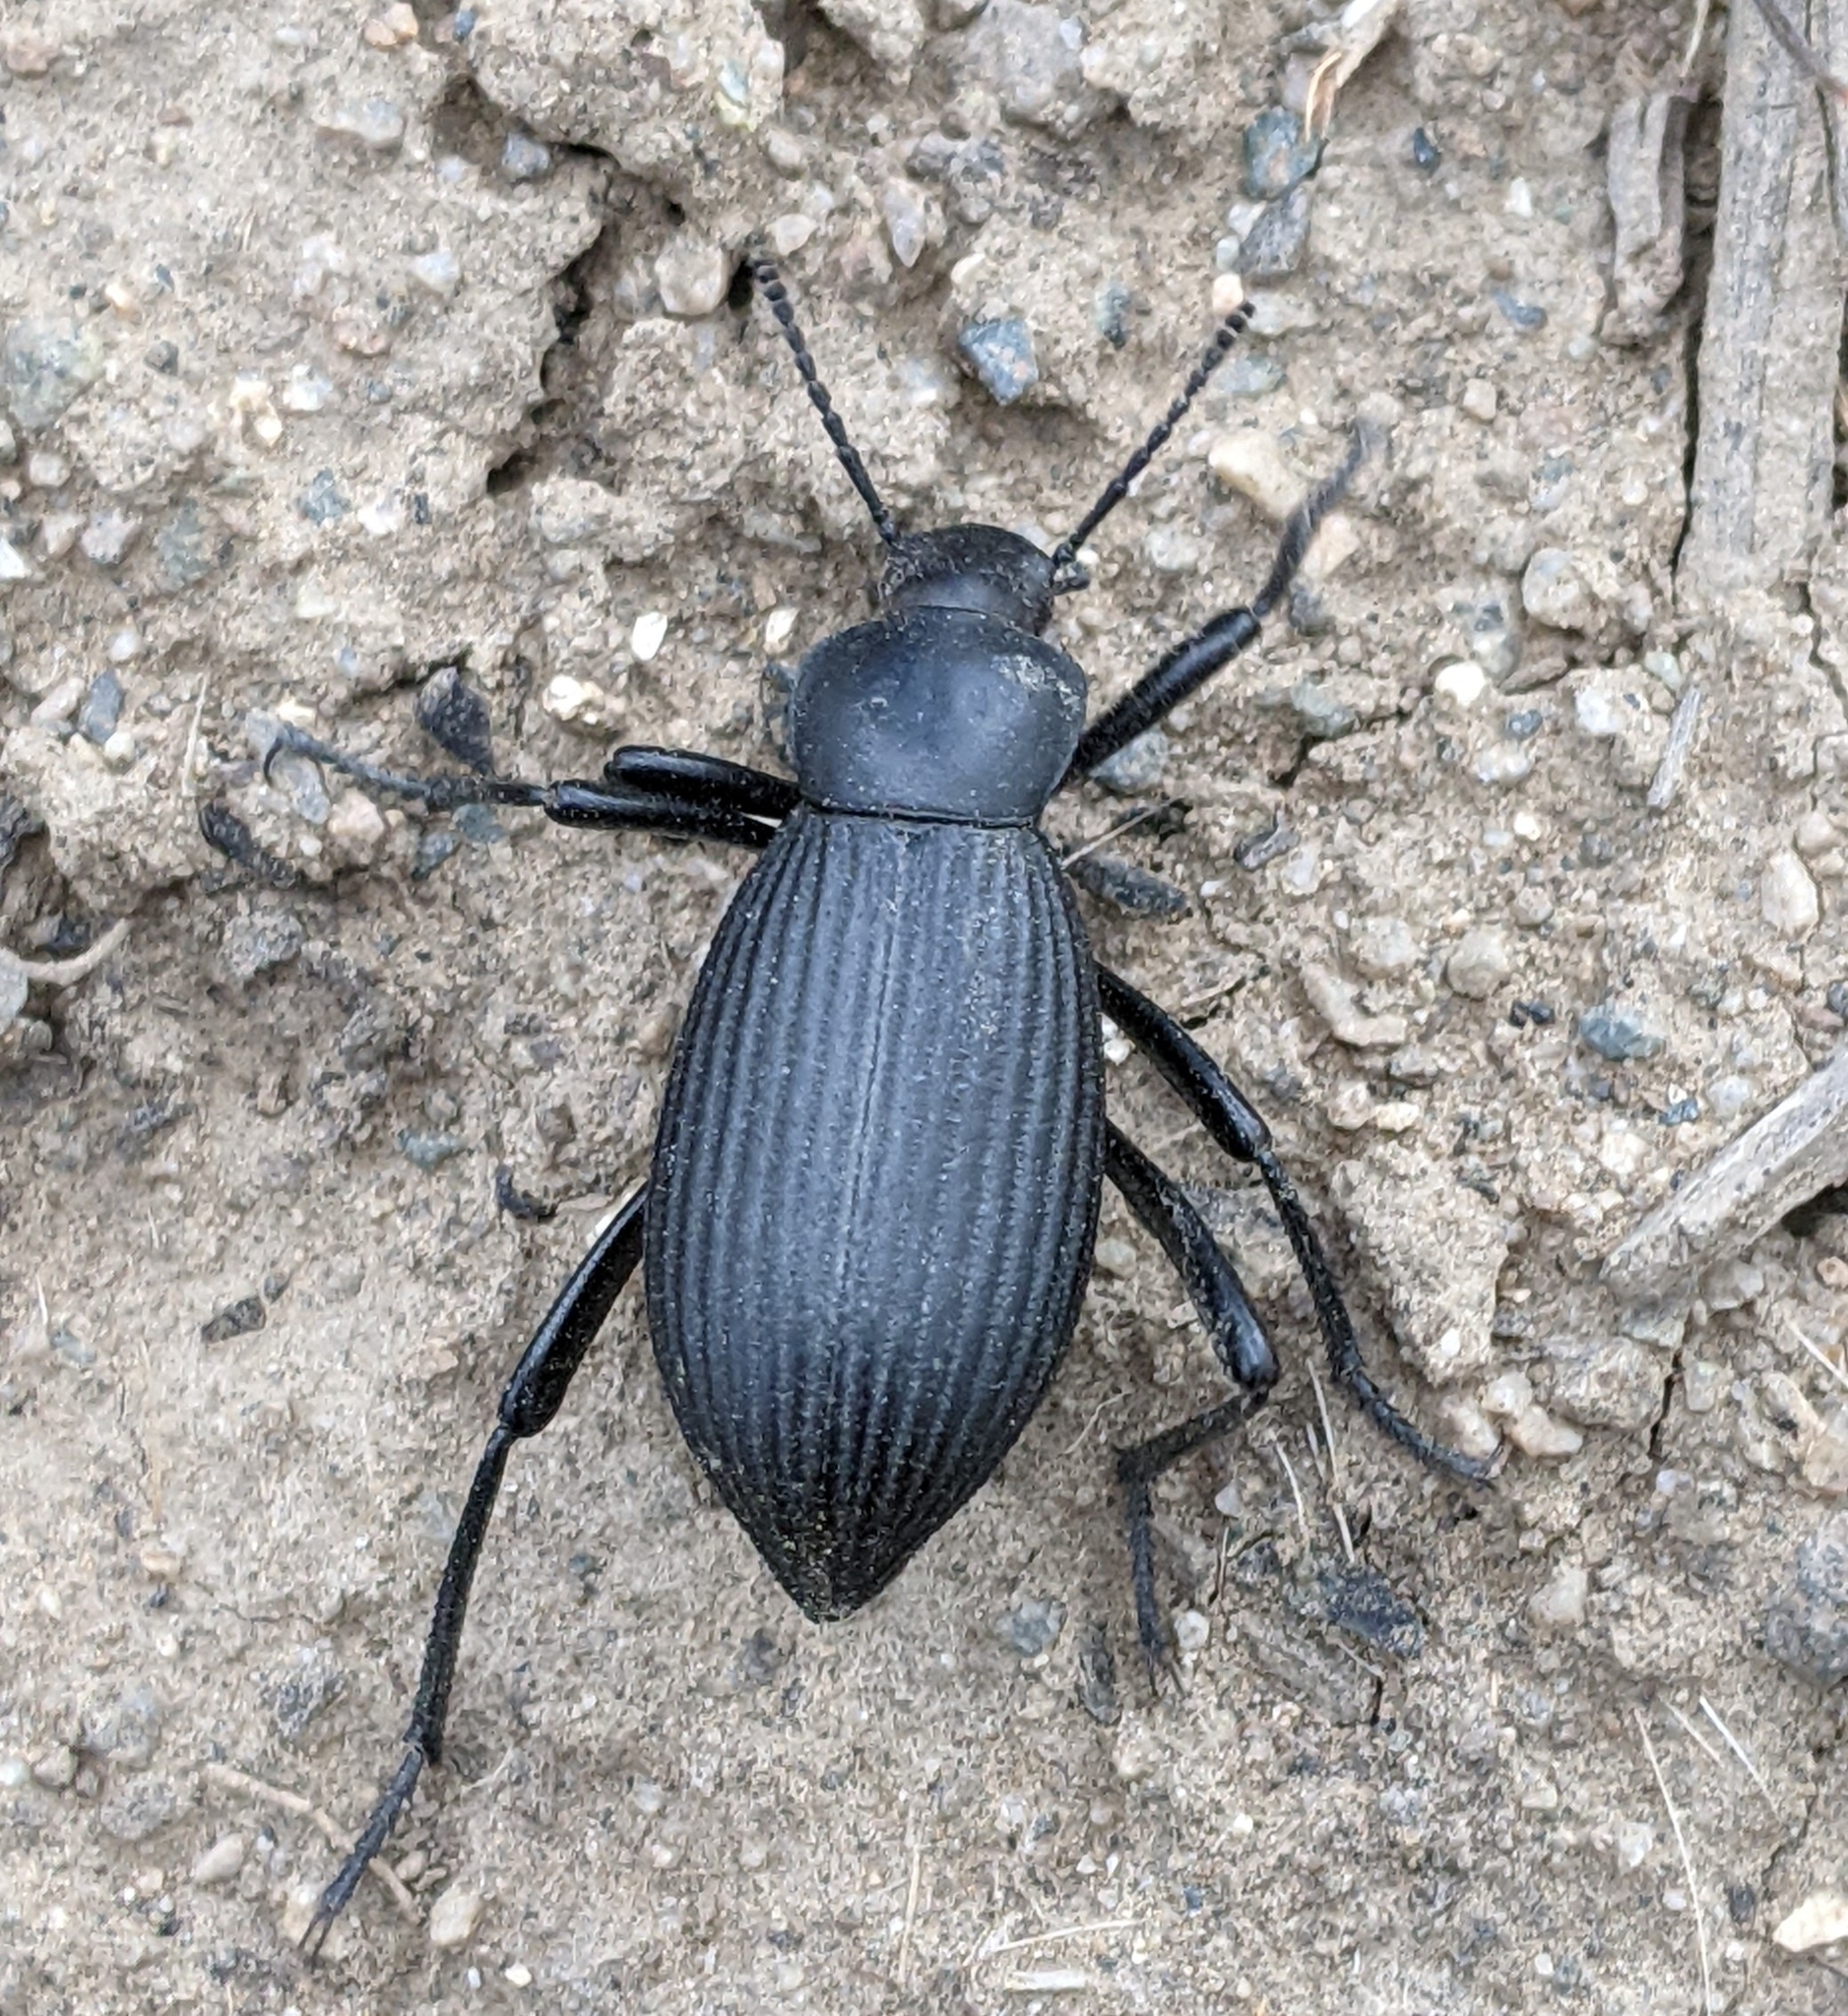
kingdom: Animalia
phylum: Arthropoda
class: Insecta
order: Coleoptera
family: Tenebrionidae
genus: Eleodes
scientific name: Eleodes hispilabris
